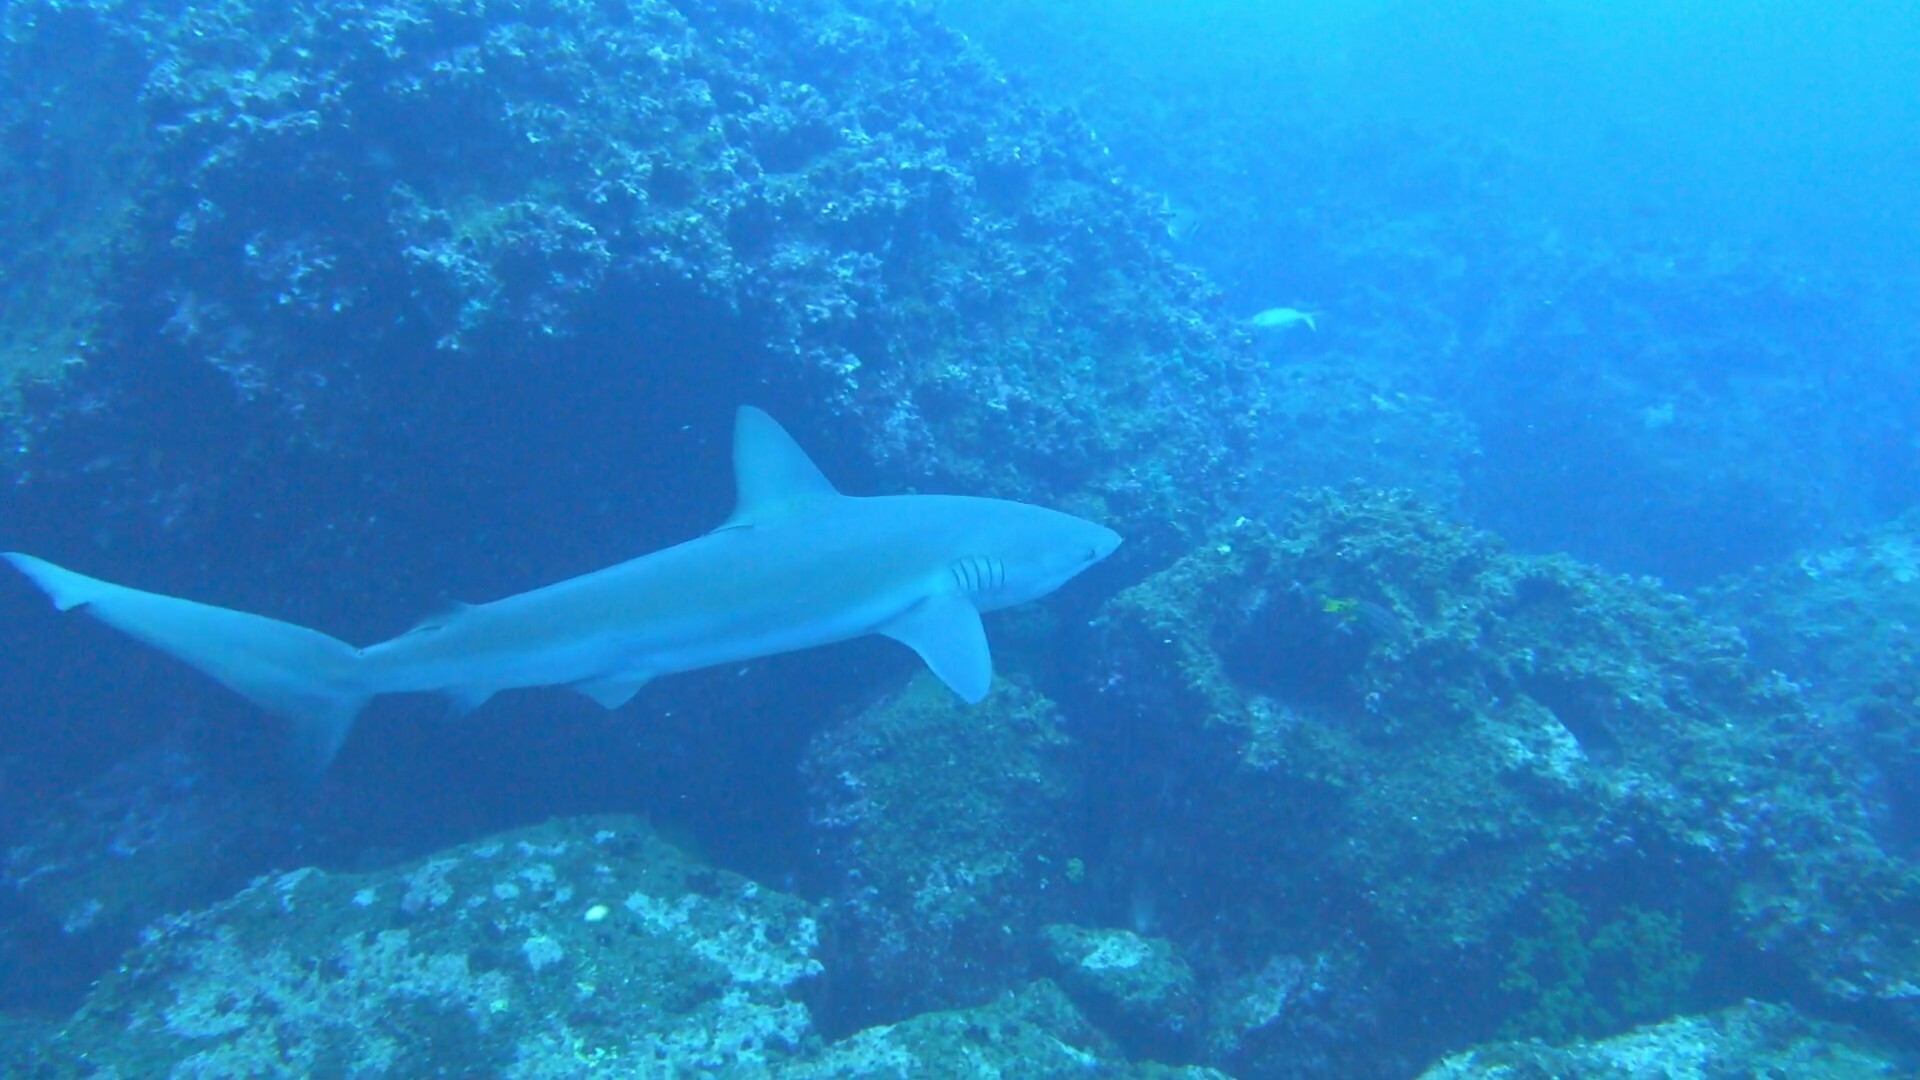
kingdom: Animalia
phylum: Chordata
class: Elasmobranchii
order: Carcharhiniformes
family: Carcharhinidae
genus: Carcharhinus
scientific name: Carcharhinus galapagensis
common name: Galapagos shark
